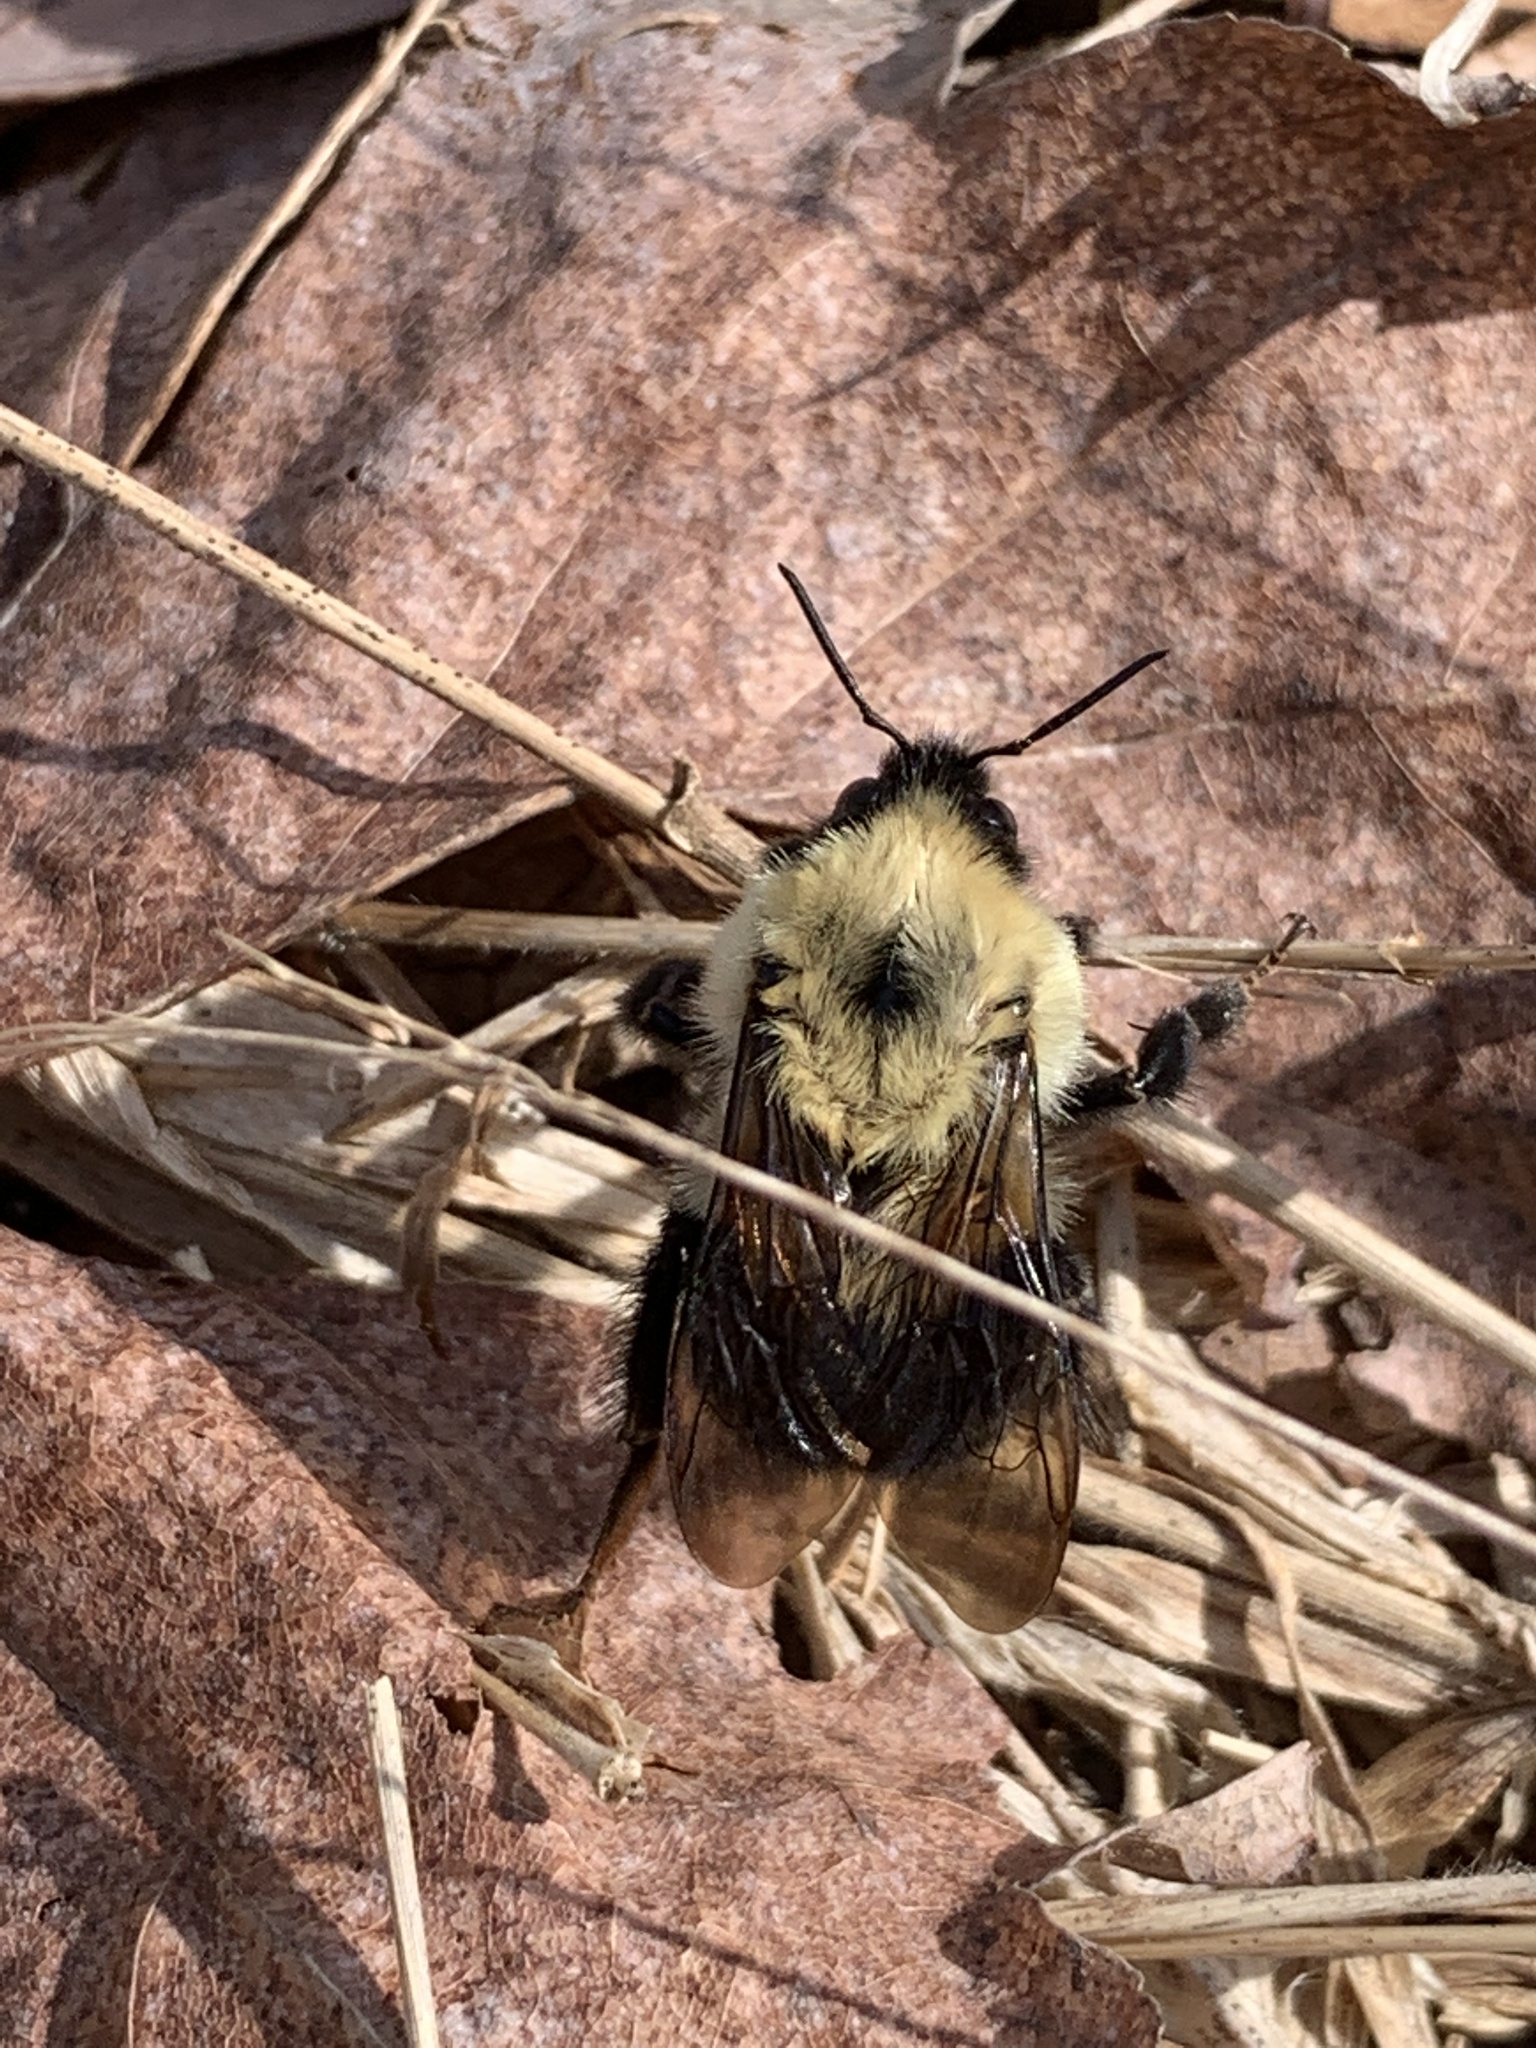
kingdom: Animalia
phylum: Arthropoda
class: Insecta
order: Hymenoptera
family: Apidae
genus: Bombus
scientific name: Bombus bimaculatus
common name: Two-spotted bumble bee
